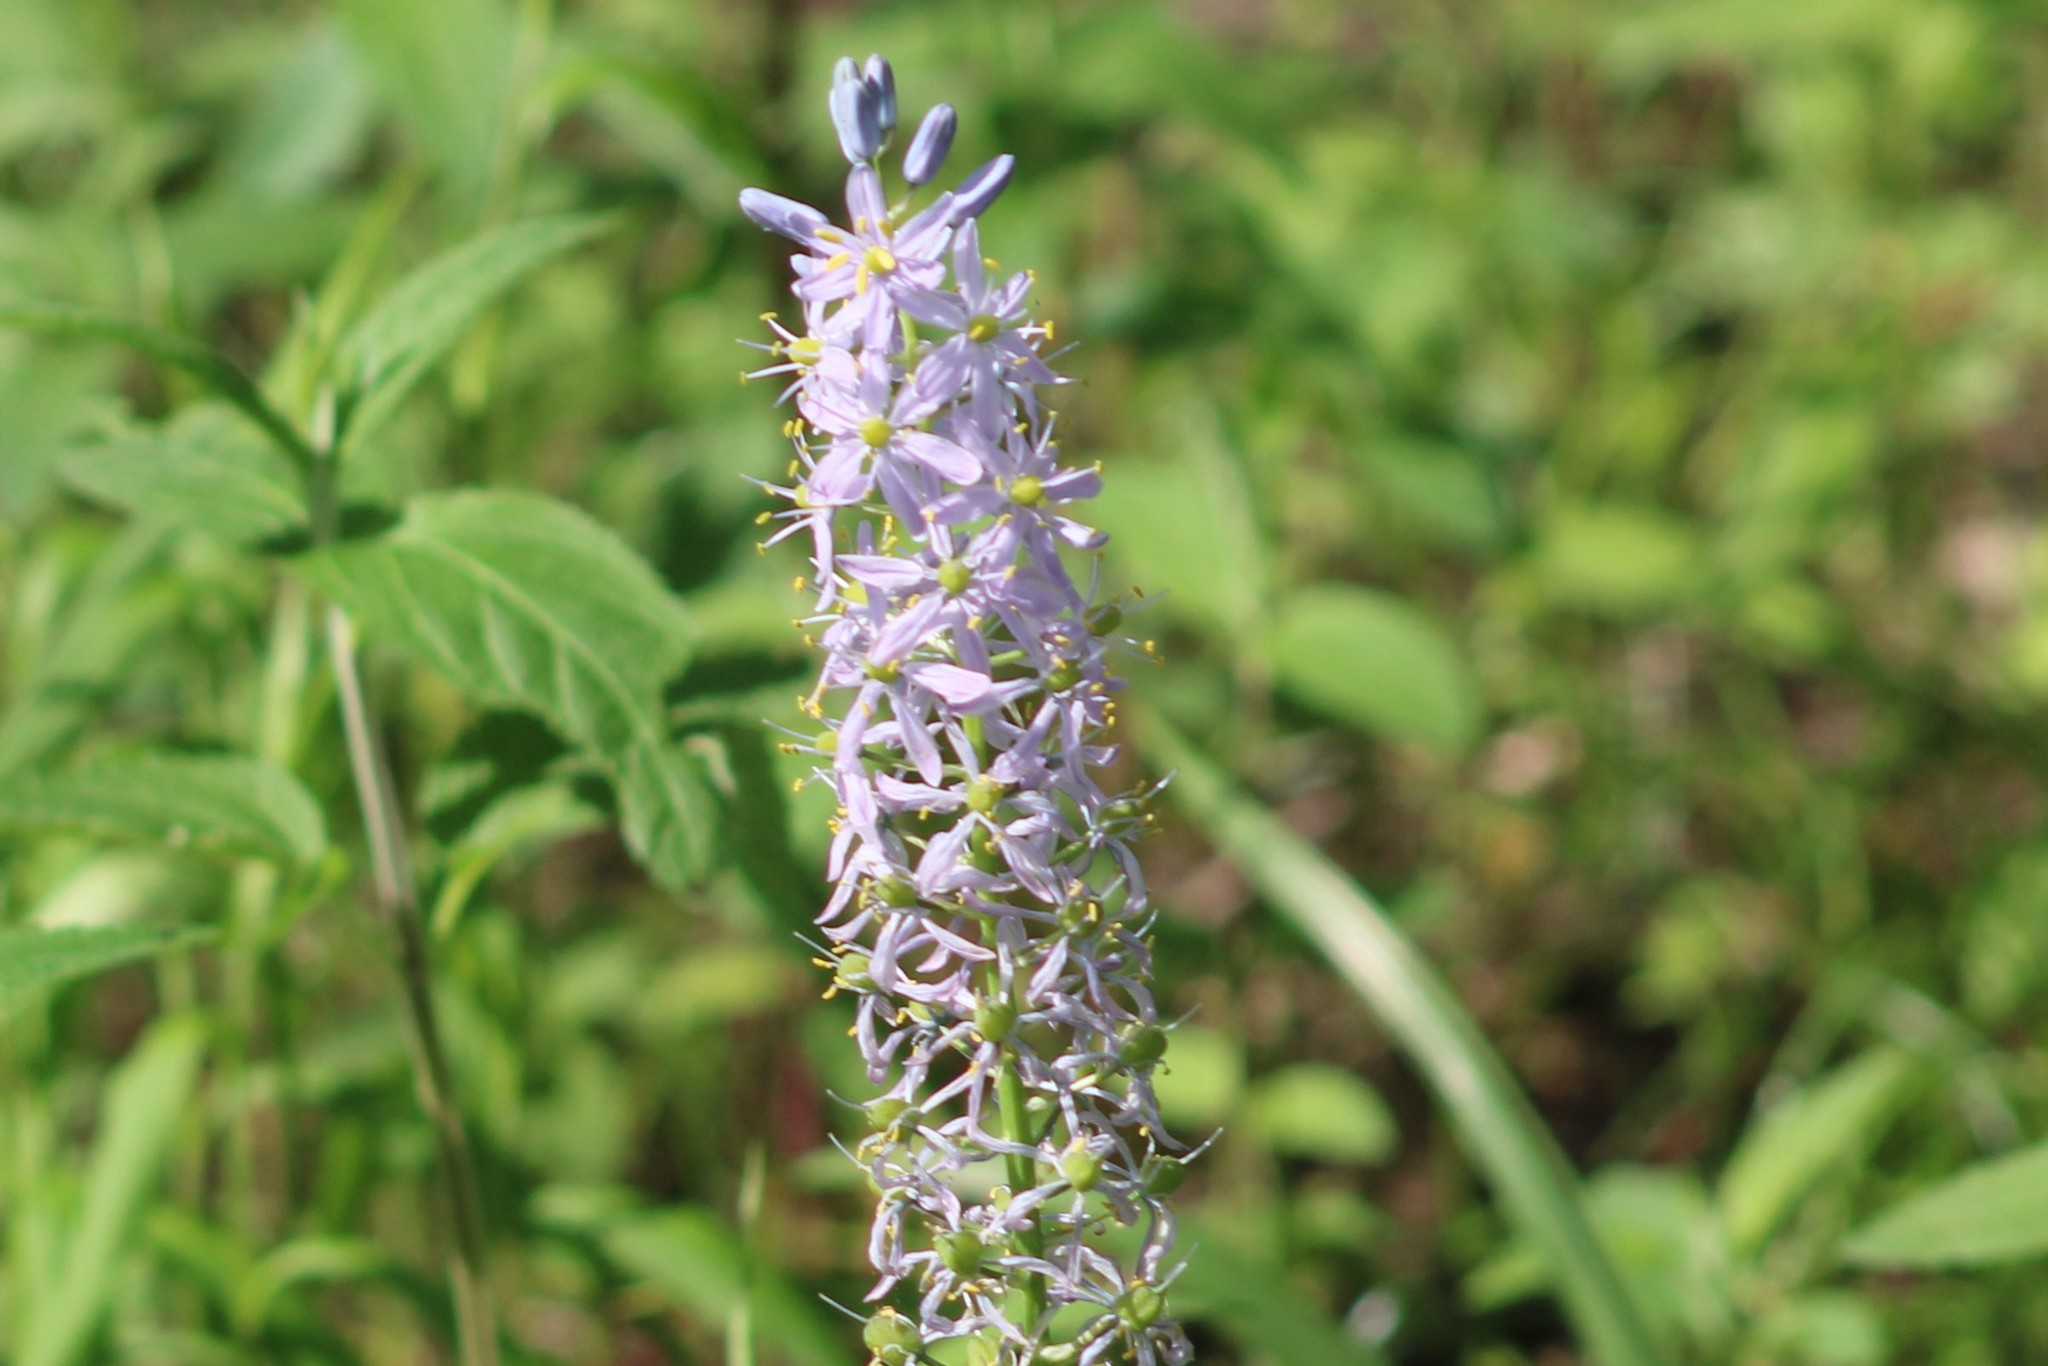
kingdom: Plantae
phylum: Tracheophyta
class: Liliopsida
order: Asparagales
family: Asparagaceae
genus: Camassia
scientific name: Camassia scilloides
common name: Wild hyacinth
